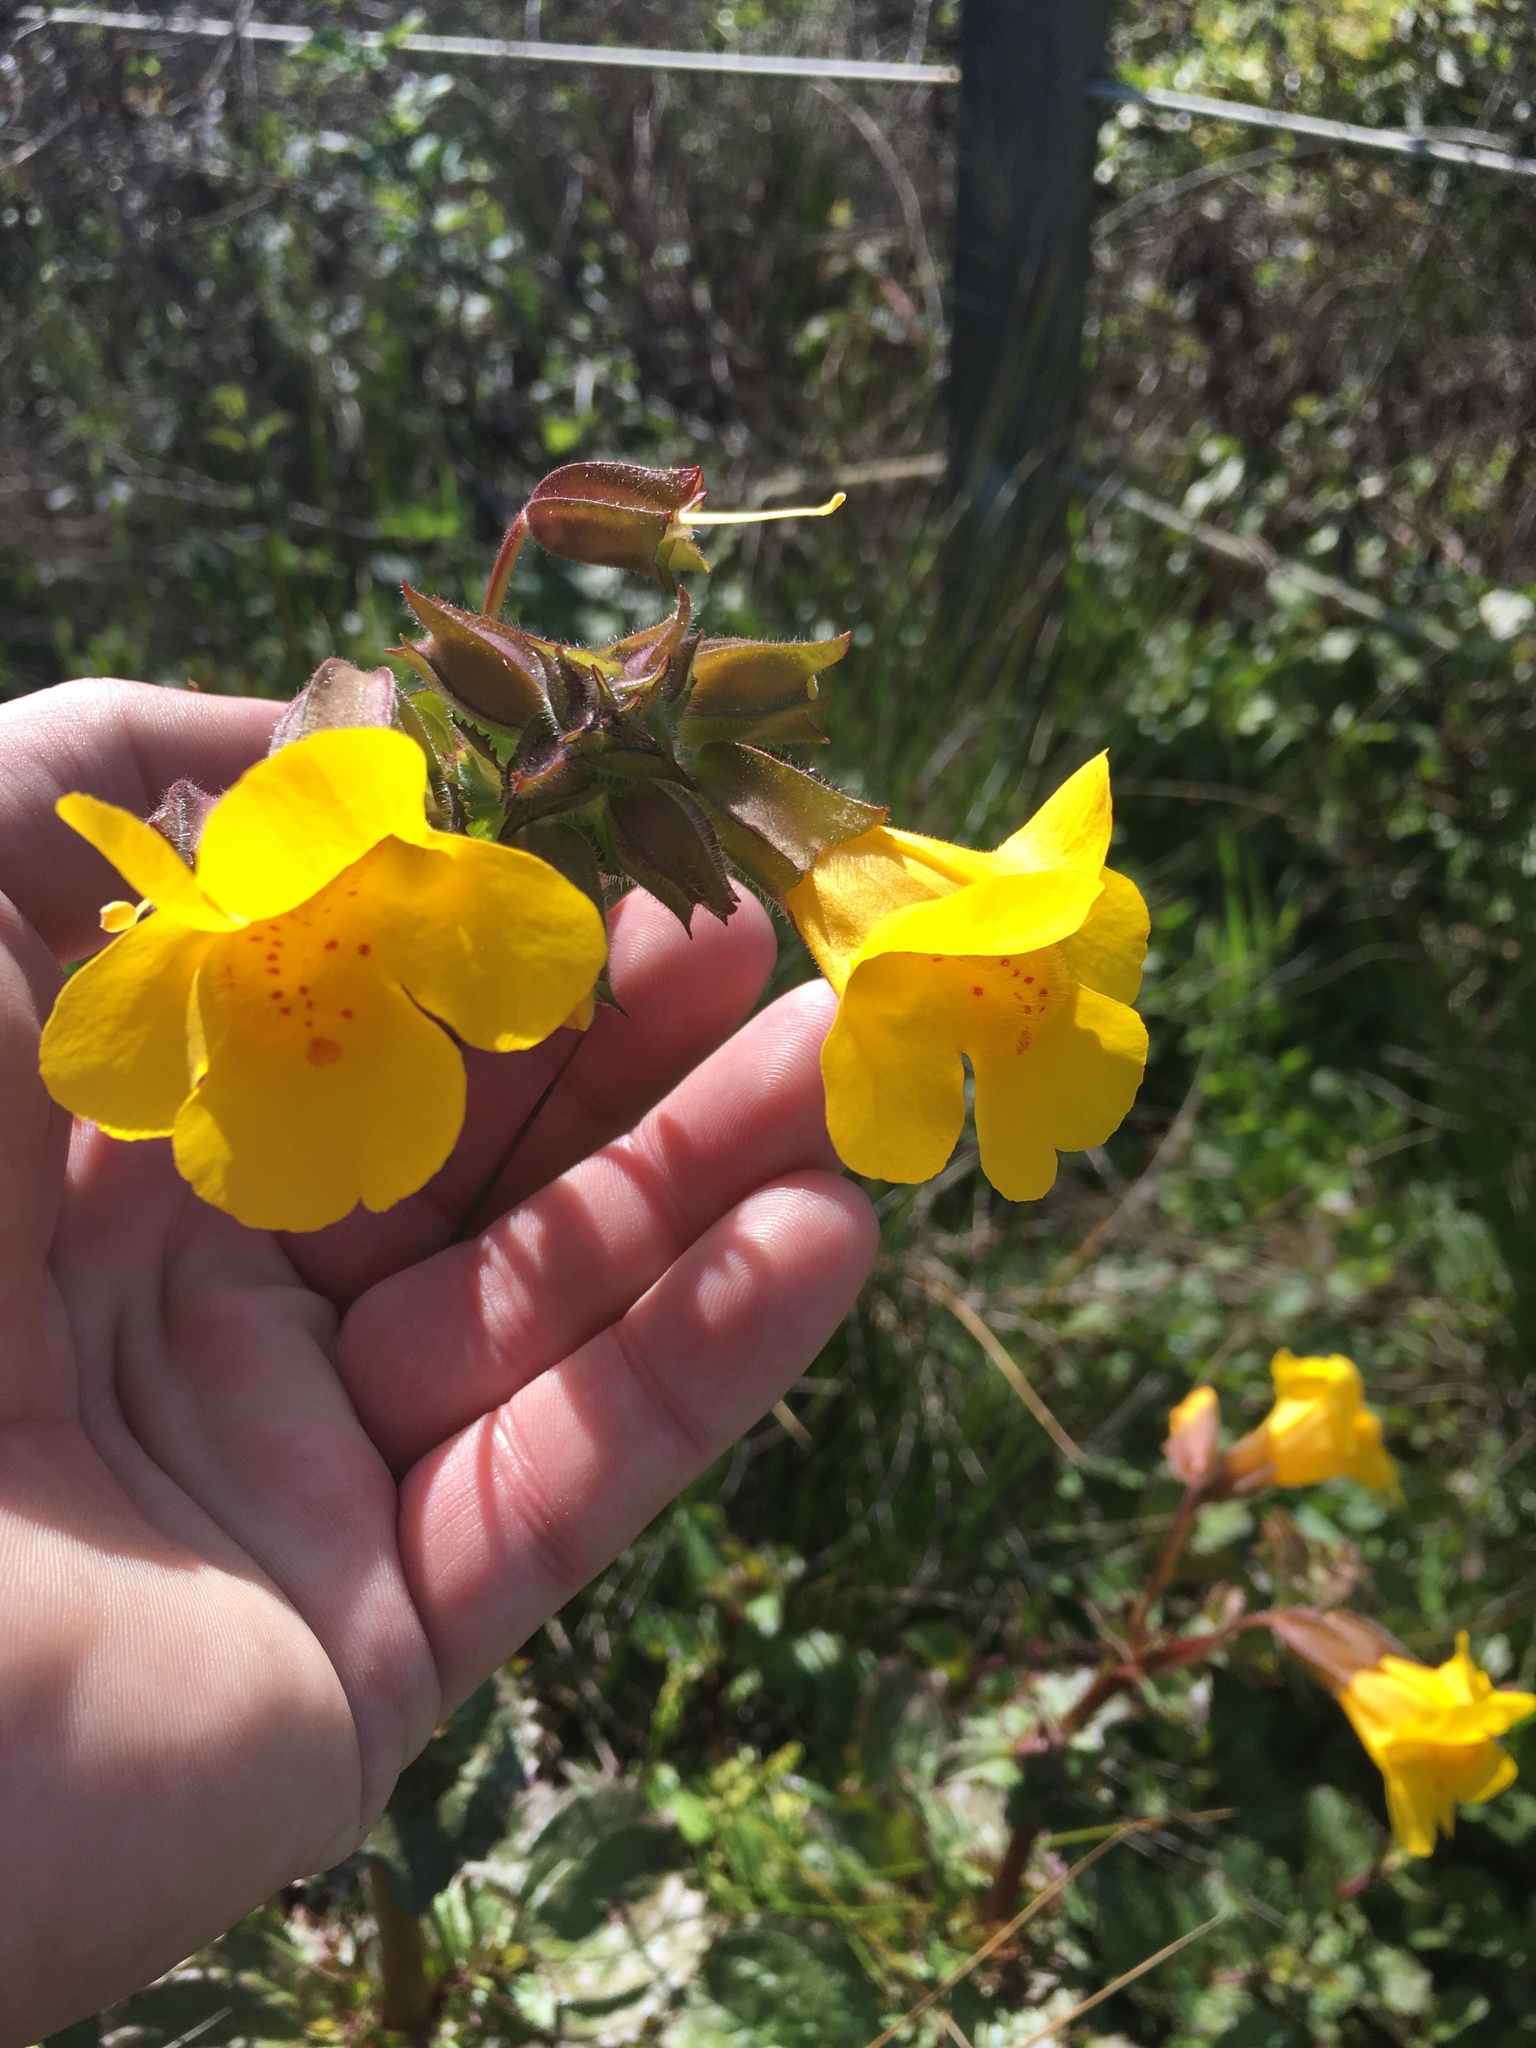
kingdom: Plantae
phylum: Tracheophyta
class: Magnoliopsida
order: Lamiales
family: Phrymaceae
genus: Erythranthe
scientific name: Erythranthe guttata
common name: Monkeyflower
